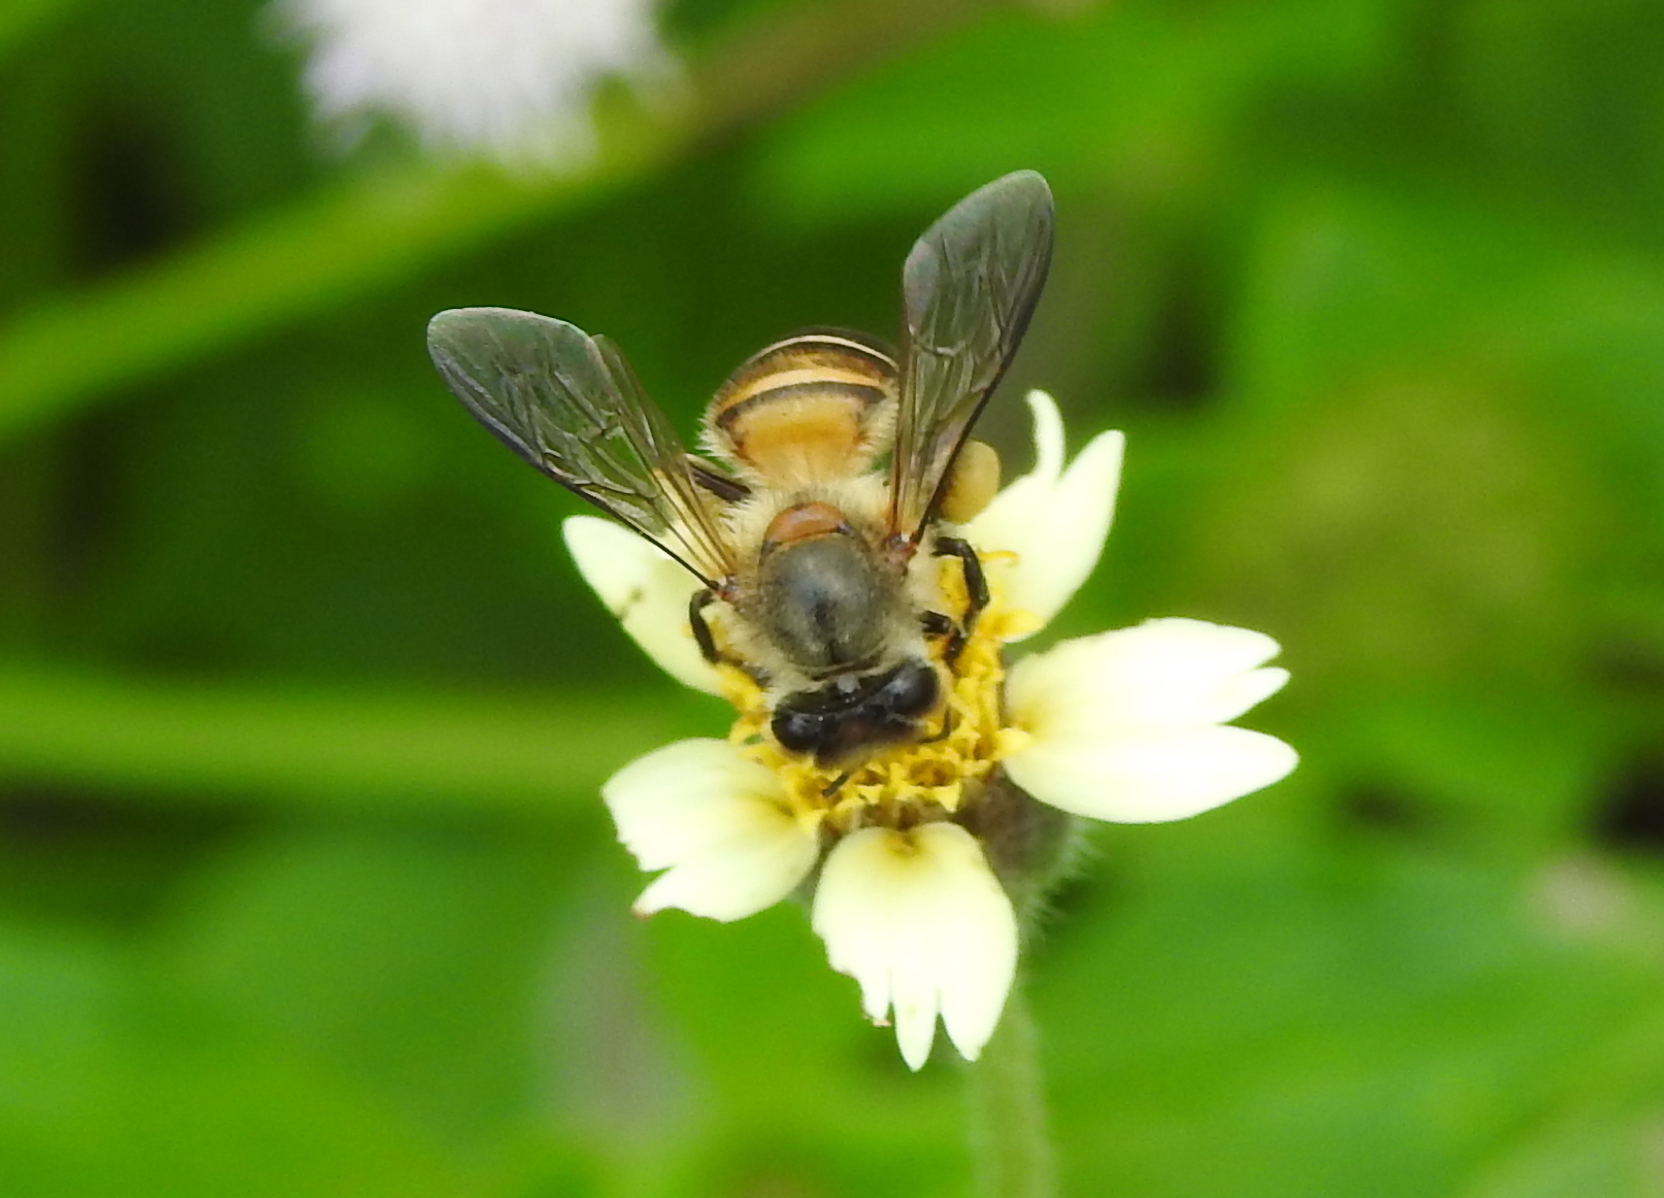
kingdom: Animalia
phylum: Arthropoda
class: Insecta
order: Hymenoptera
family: Apidae
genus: Apis
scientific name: Apis cerana
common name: Honey bee
